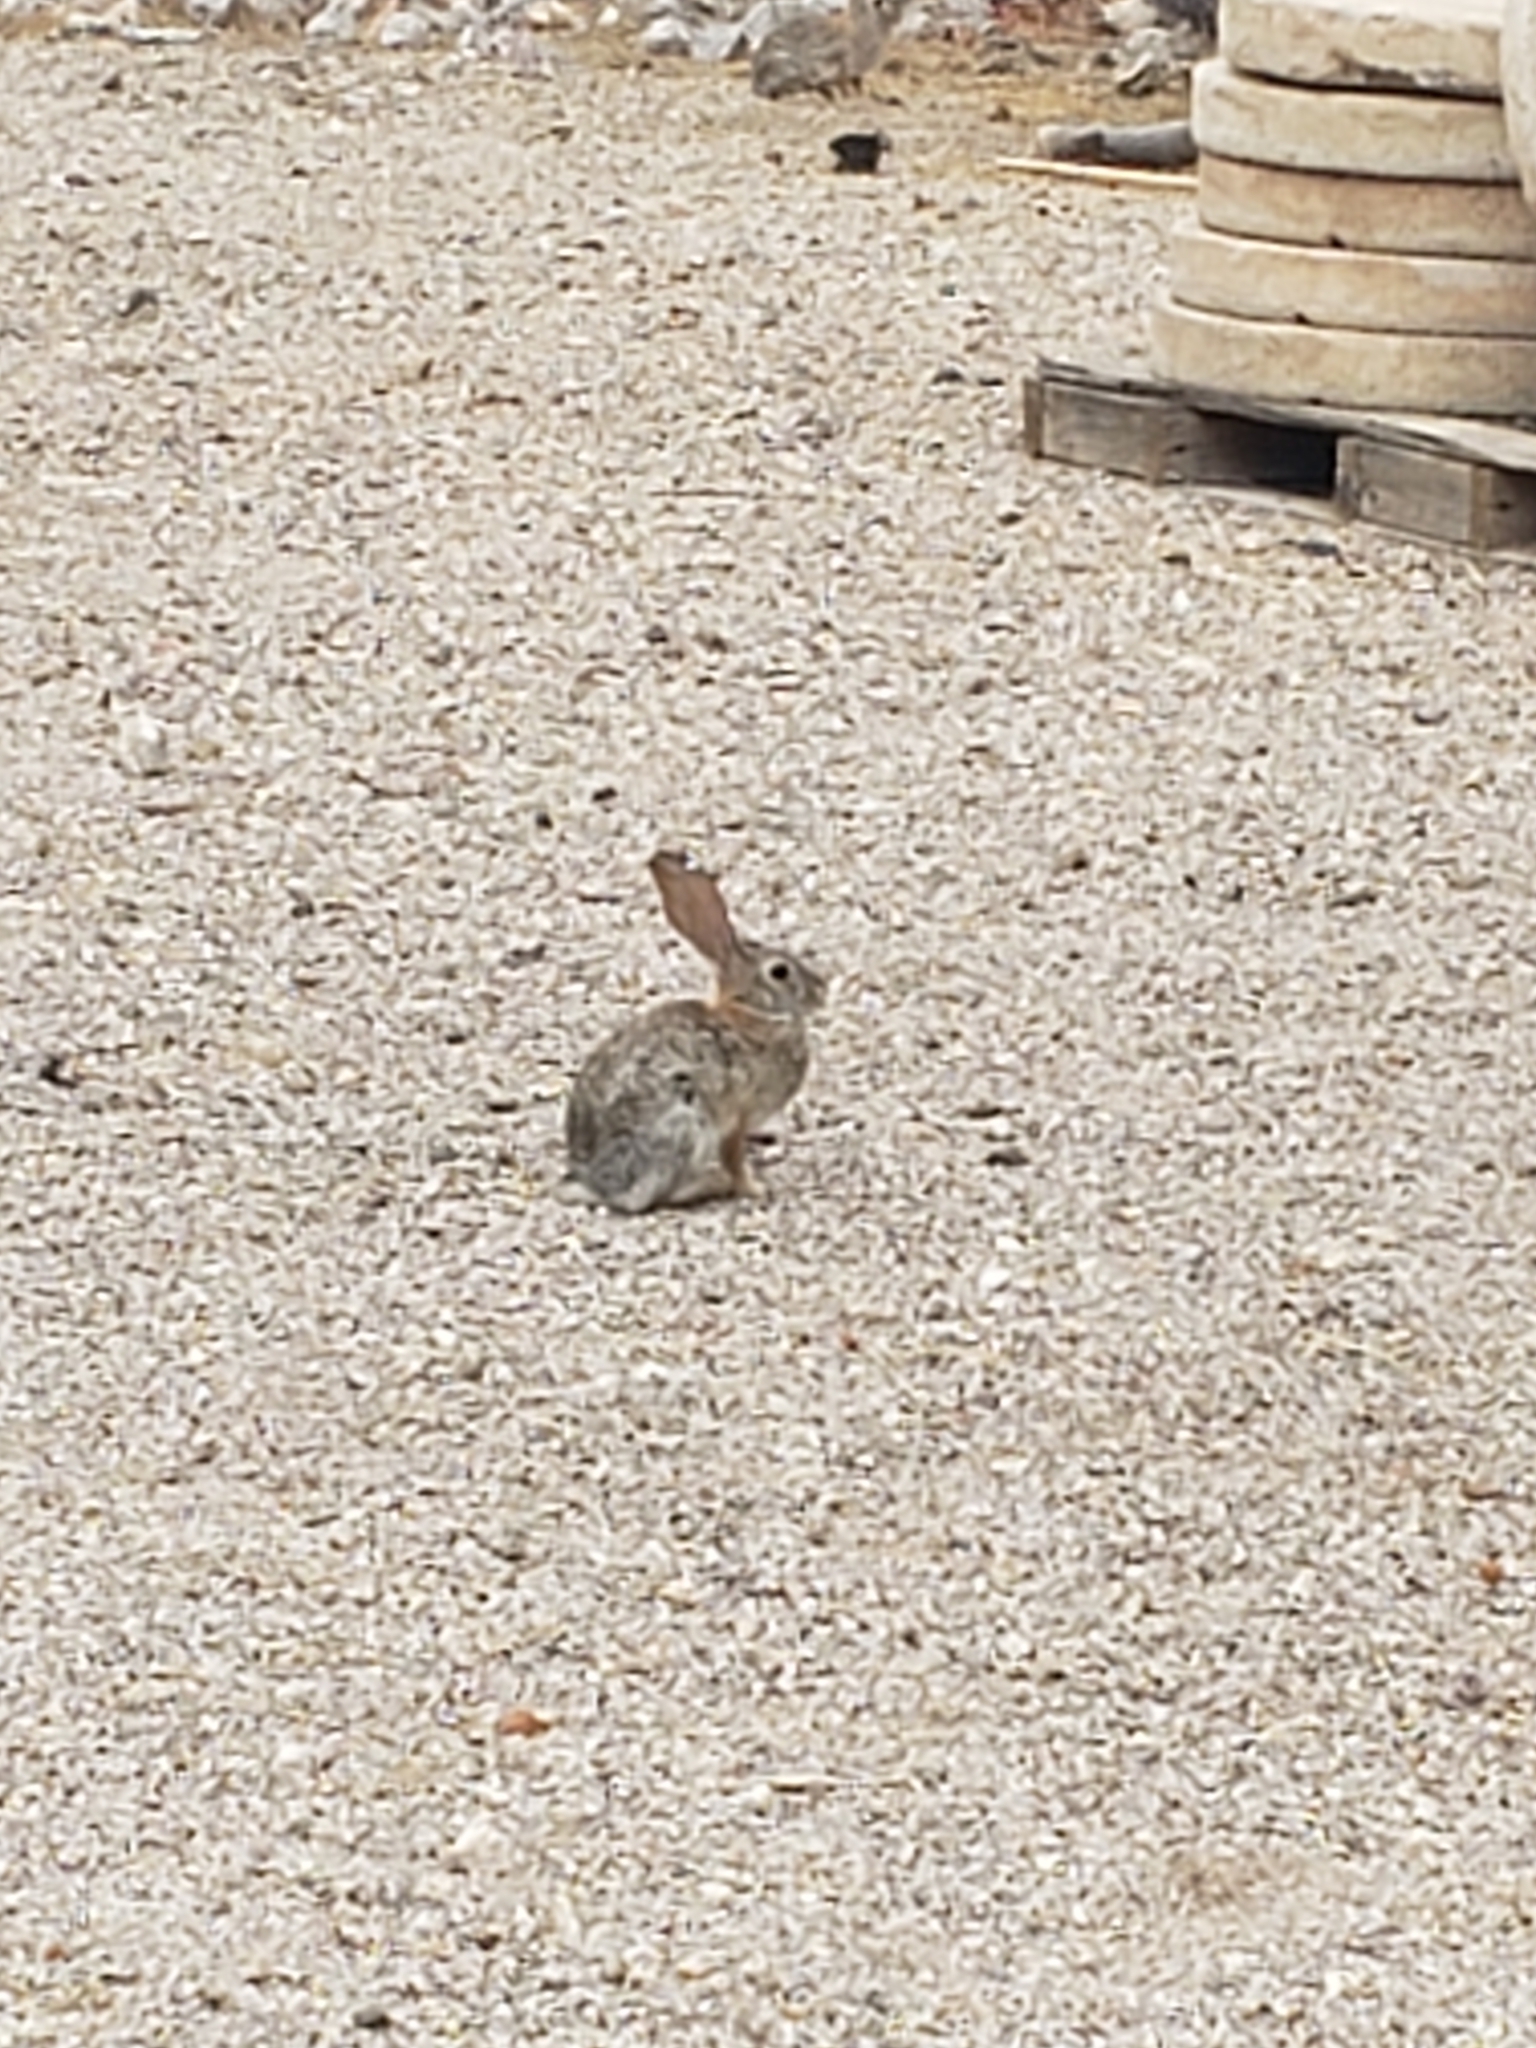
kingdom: Animalia
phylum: Chordata
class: Mammalia
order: Lagomorpha
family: Leporidae
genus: Sylvilagus
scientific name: Sylvilagus audubonii
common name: Desert cottontail
